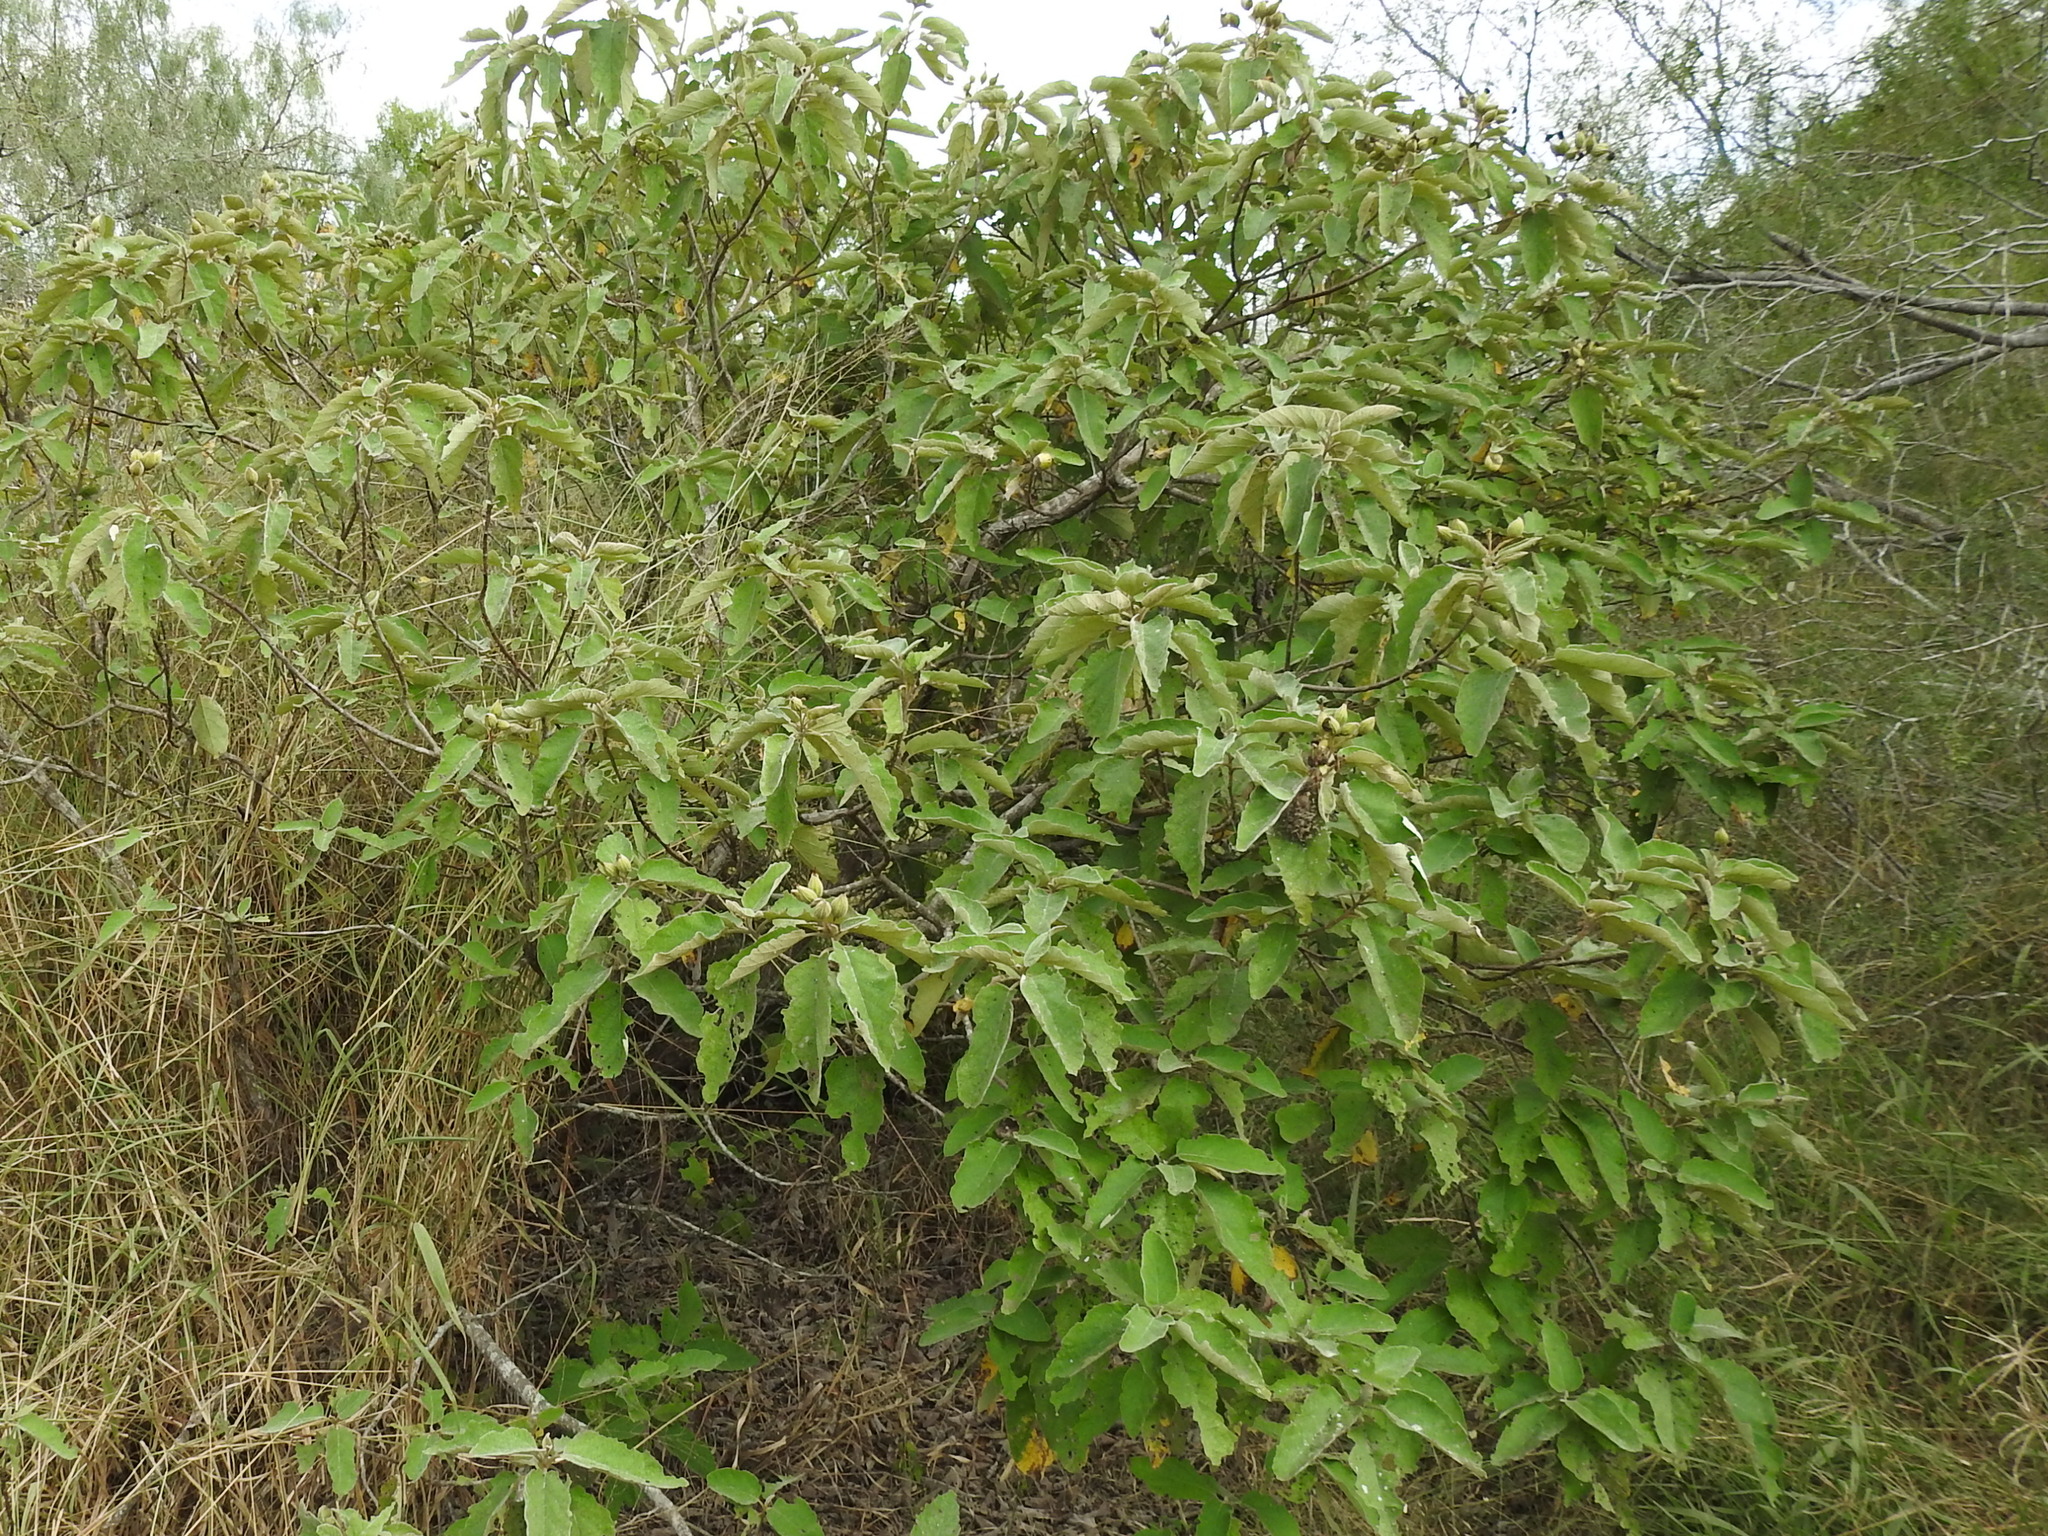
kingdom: Plantae
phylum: Tracheophyta
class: Magnoliopsida
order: Boraginales
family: Cordiaceae
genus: Cordia
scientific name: Cordia boissieri
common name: Mexican-olive
